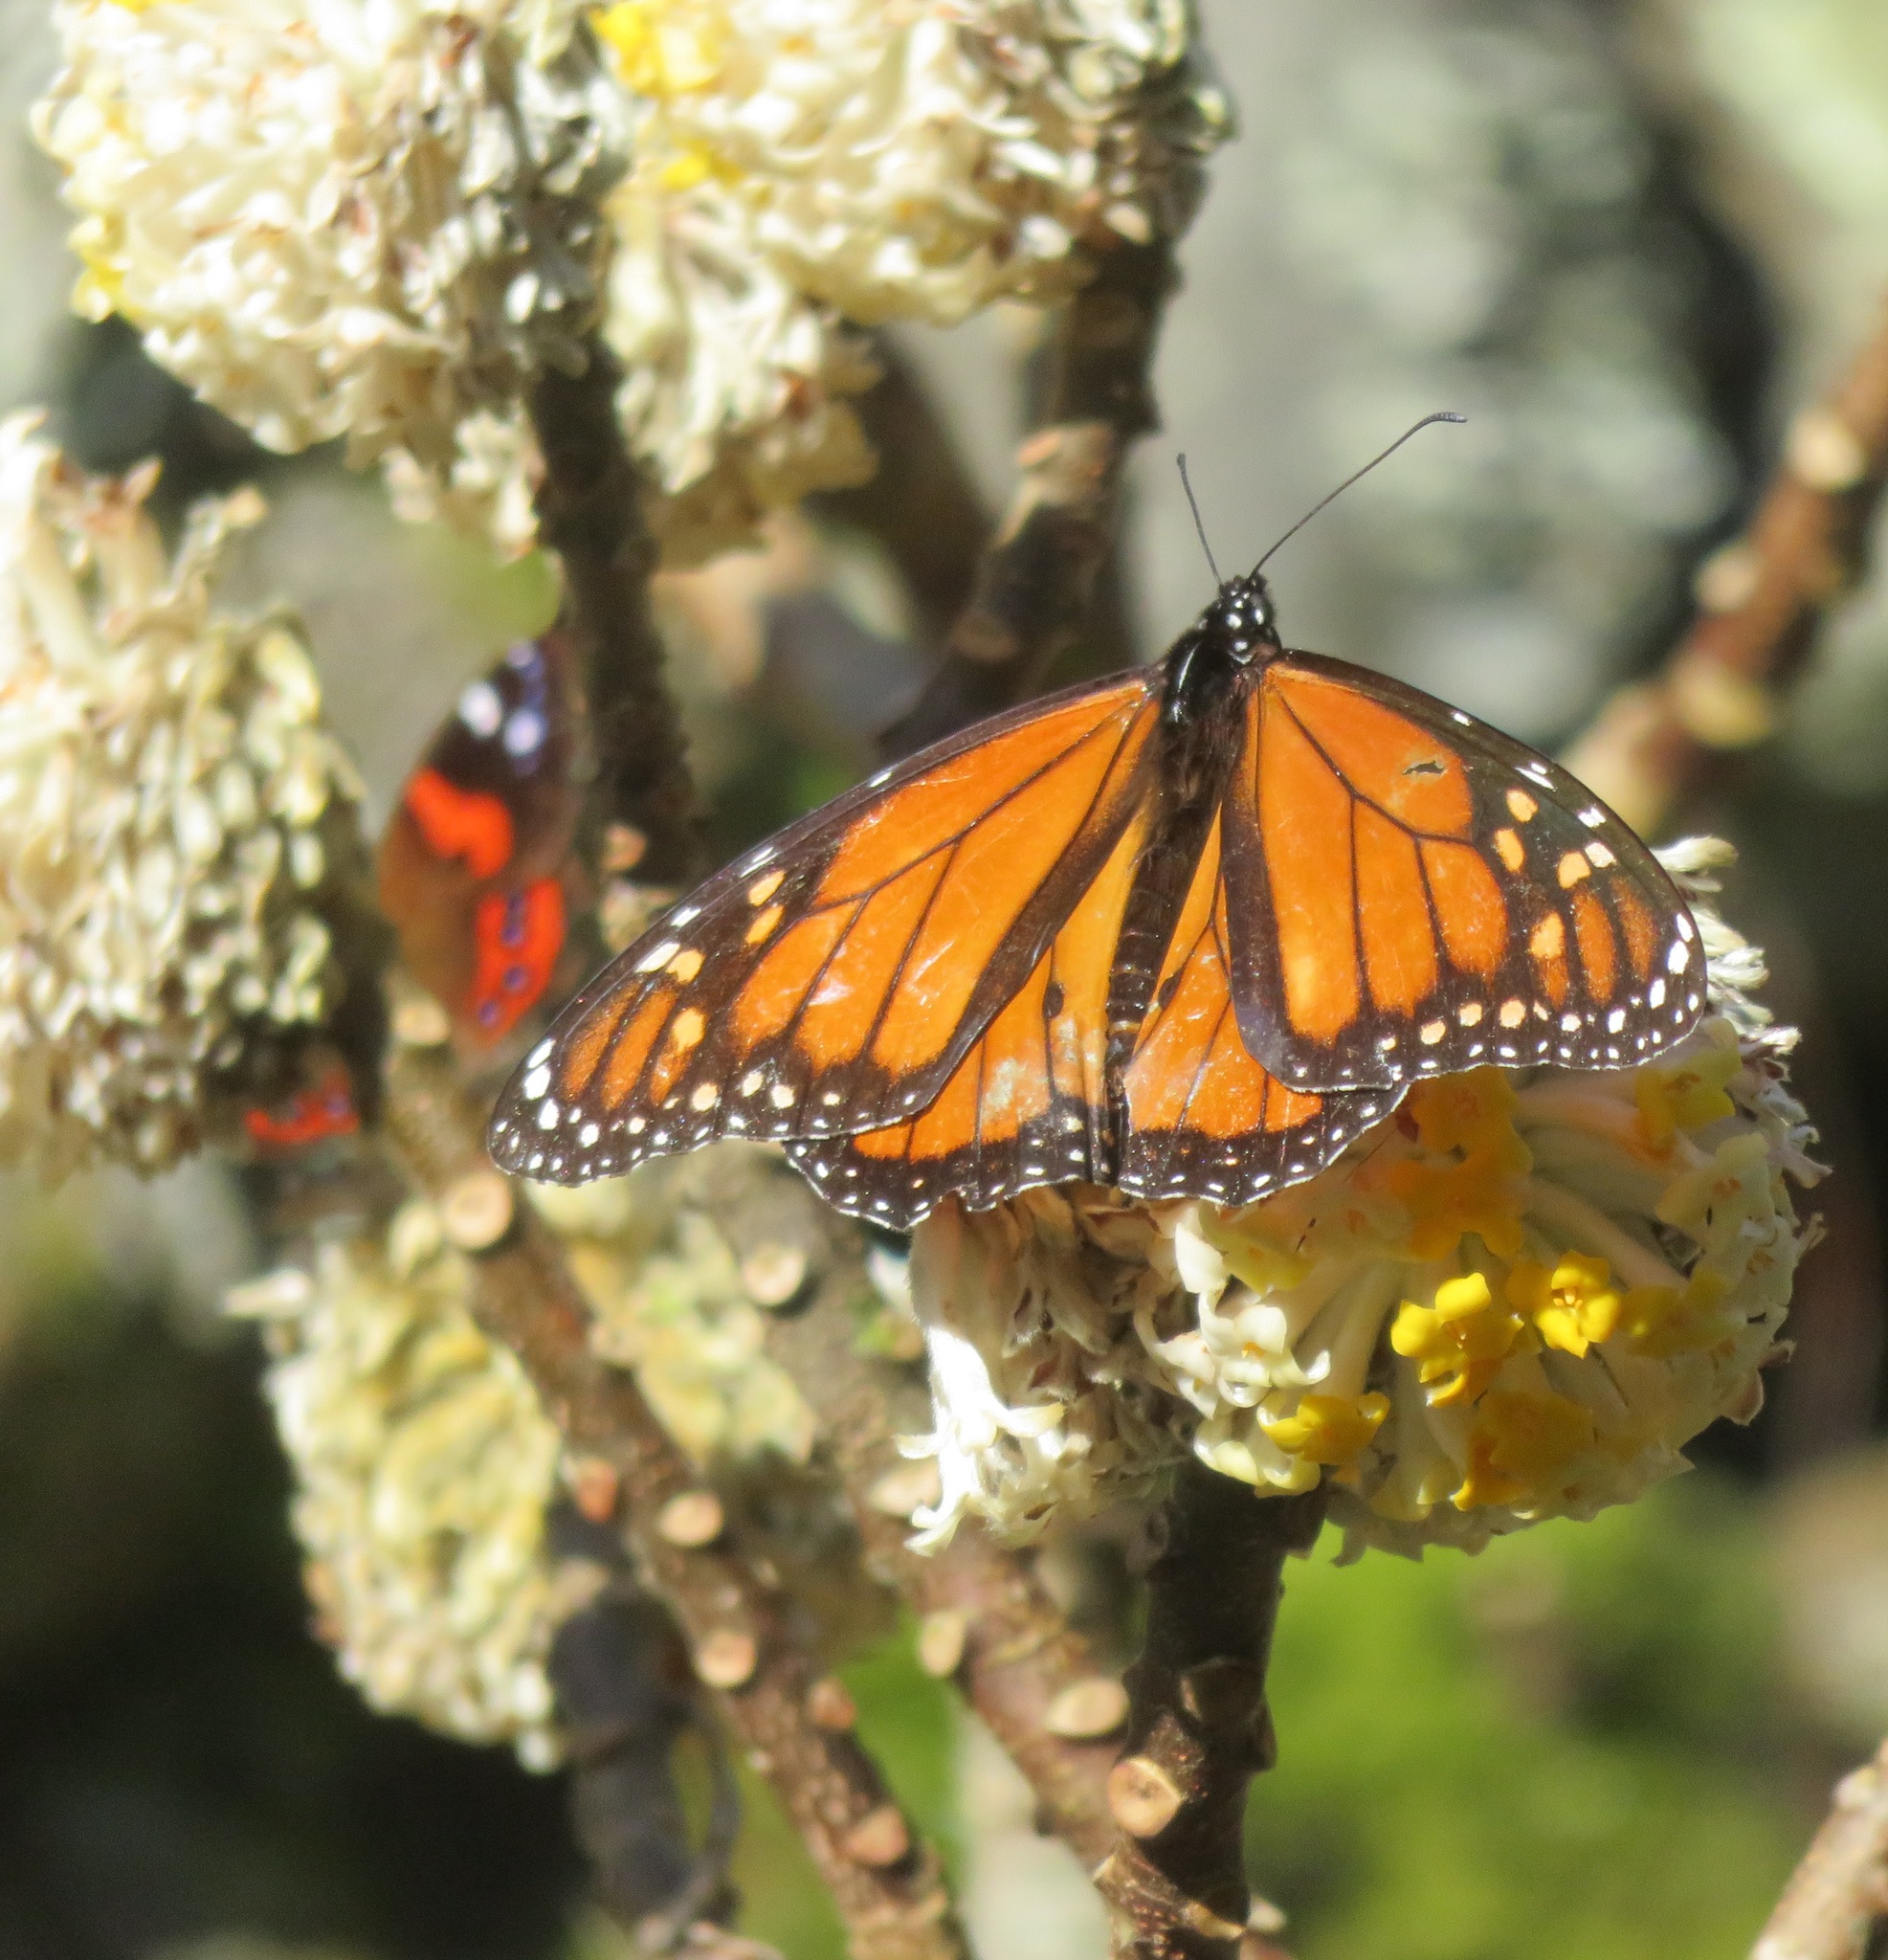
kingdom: Animalia
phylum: Arthropoda
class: Insecta
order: Lepidoptera
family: Nymphalidae
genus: Danaus
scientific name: Danaus plexippus
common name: Monarch
